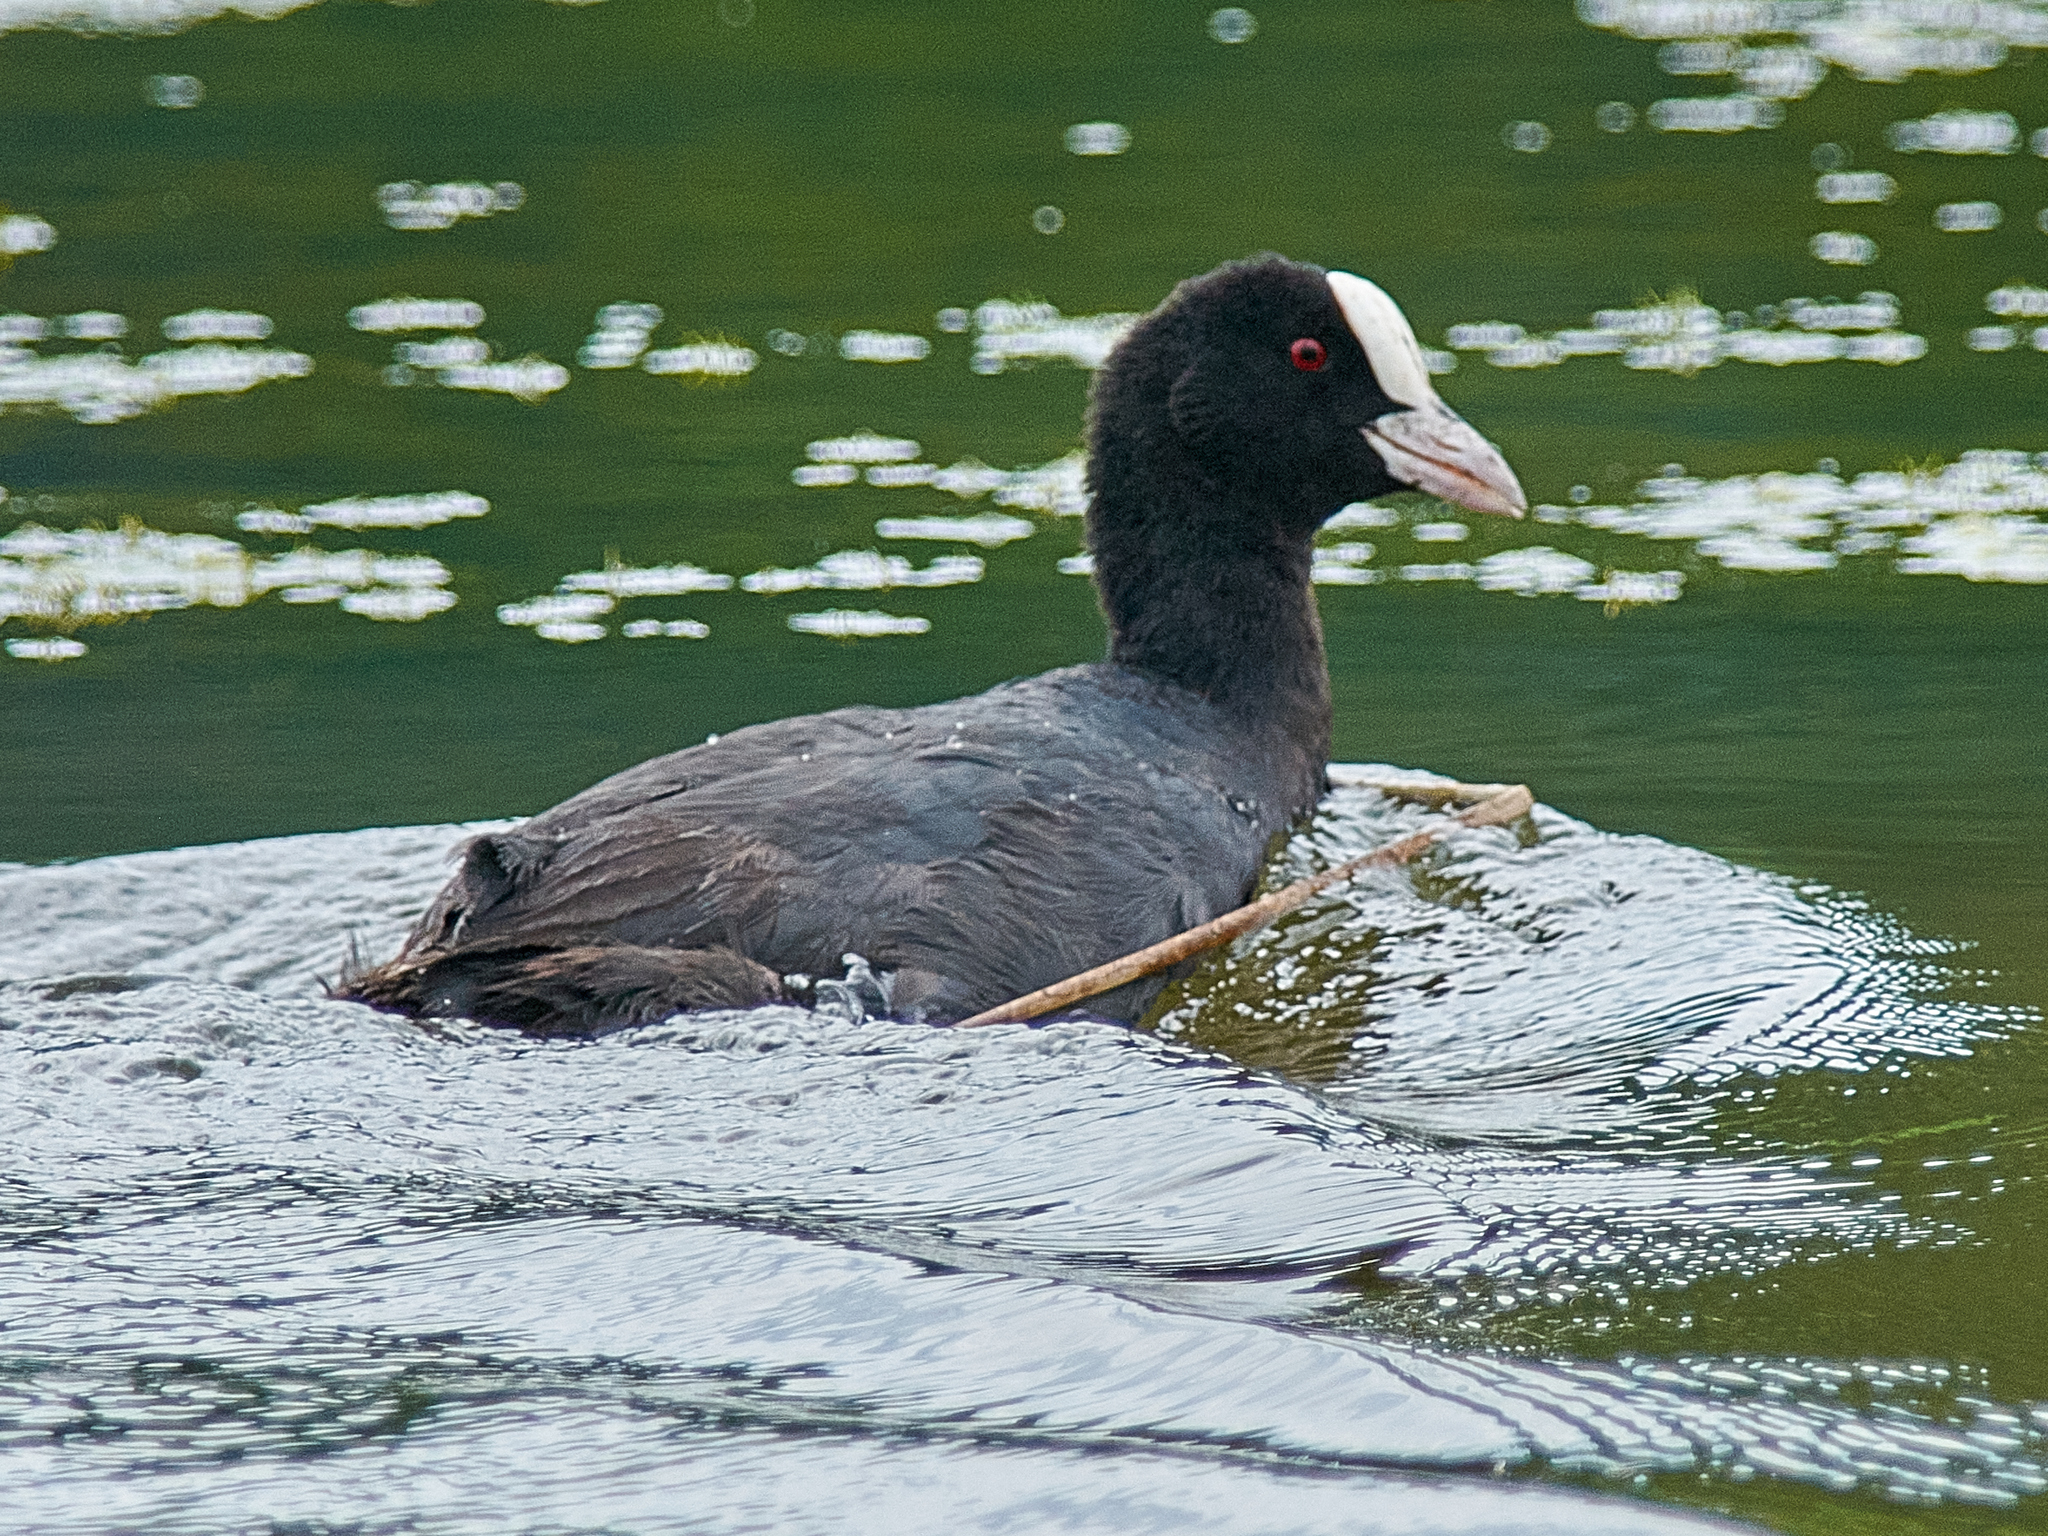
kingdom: Animalia
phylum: Chordata
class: Aves
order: Gruiformes
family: Rallidae
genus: Fulica
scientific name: Fulica atra
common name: Eurasian coot
